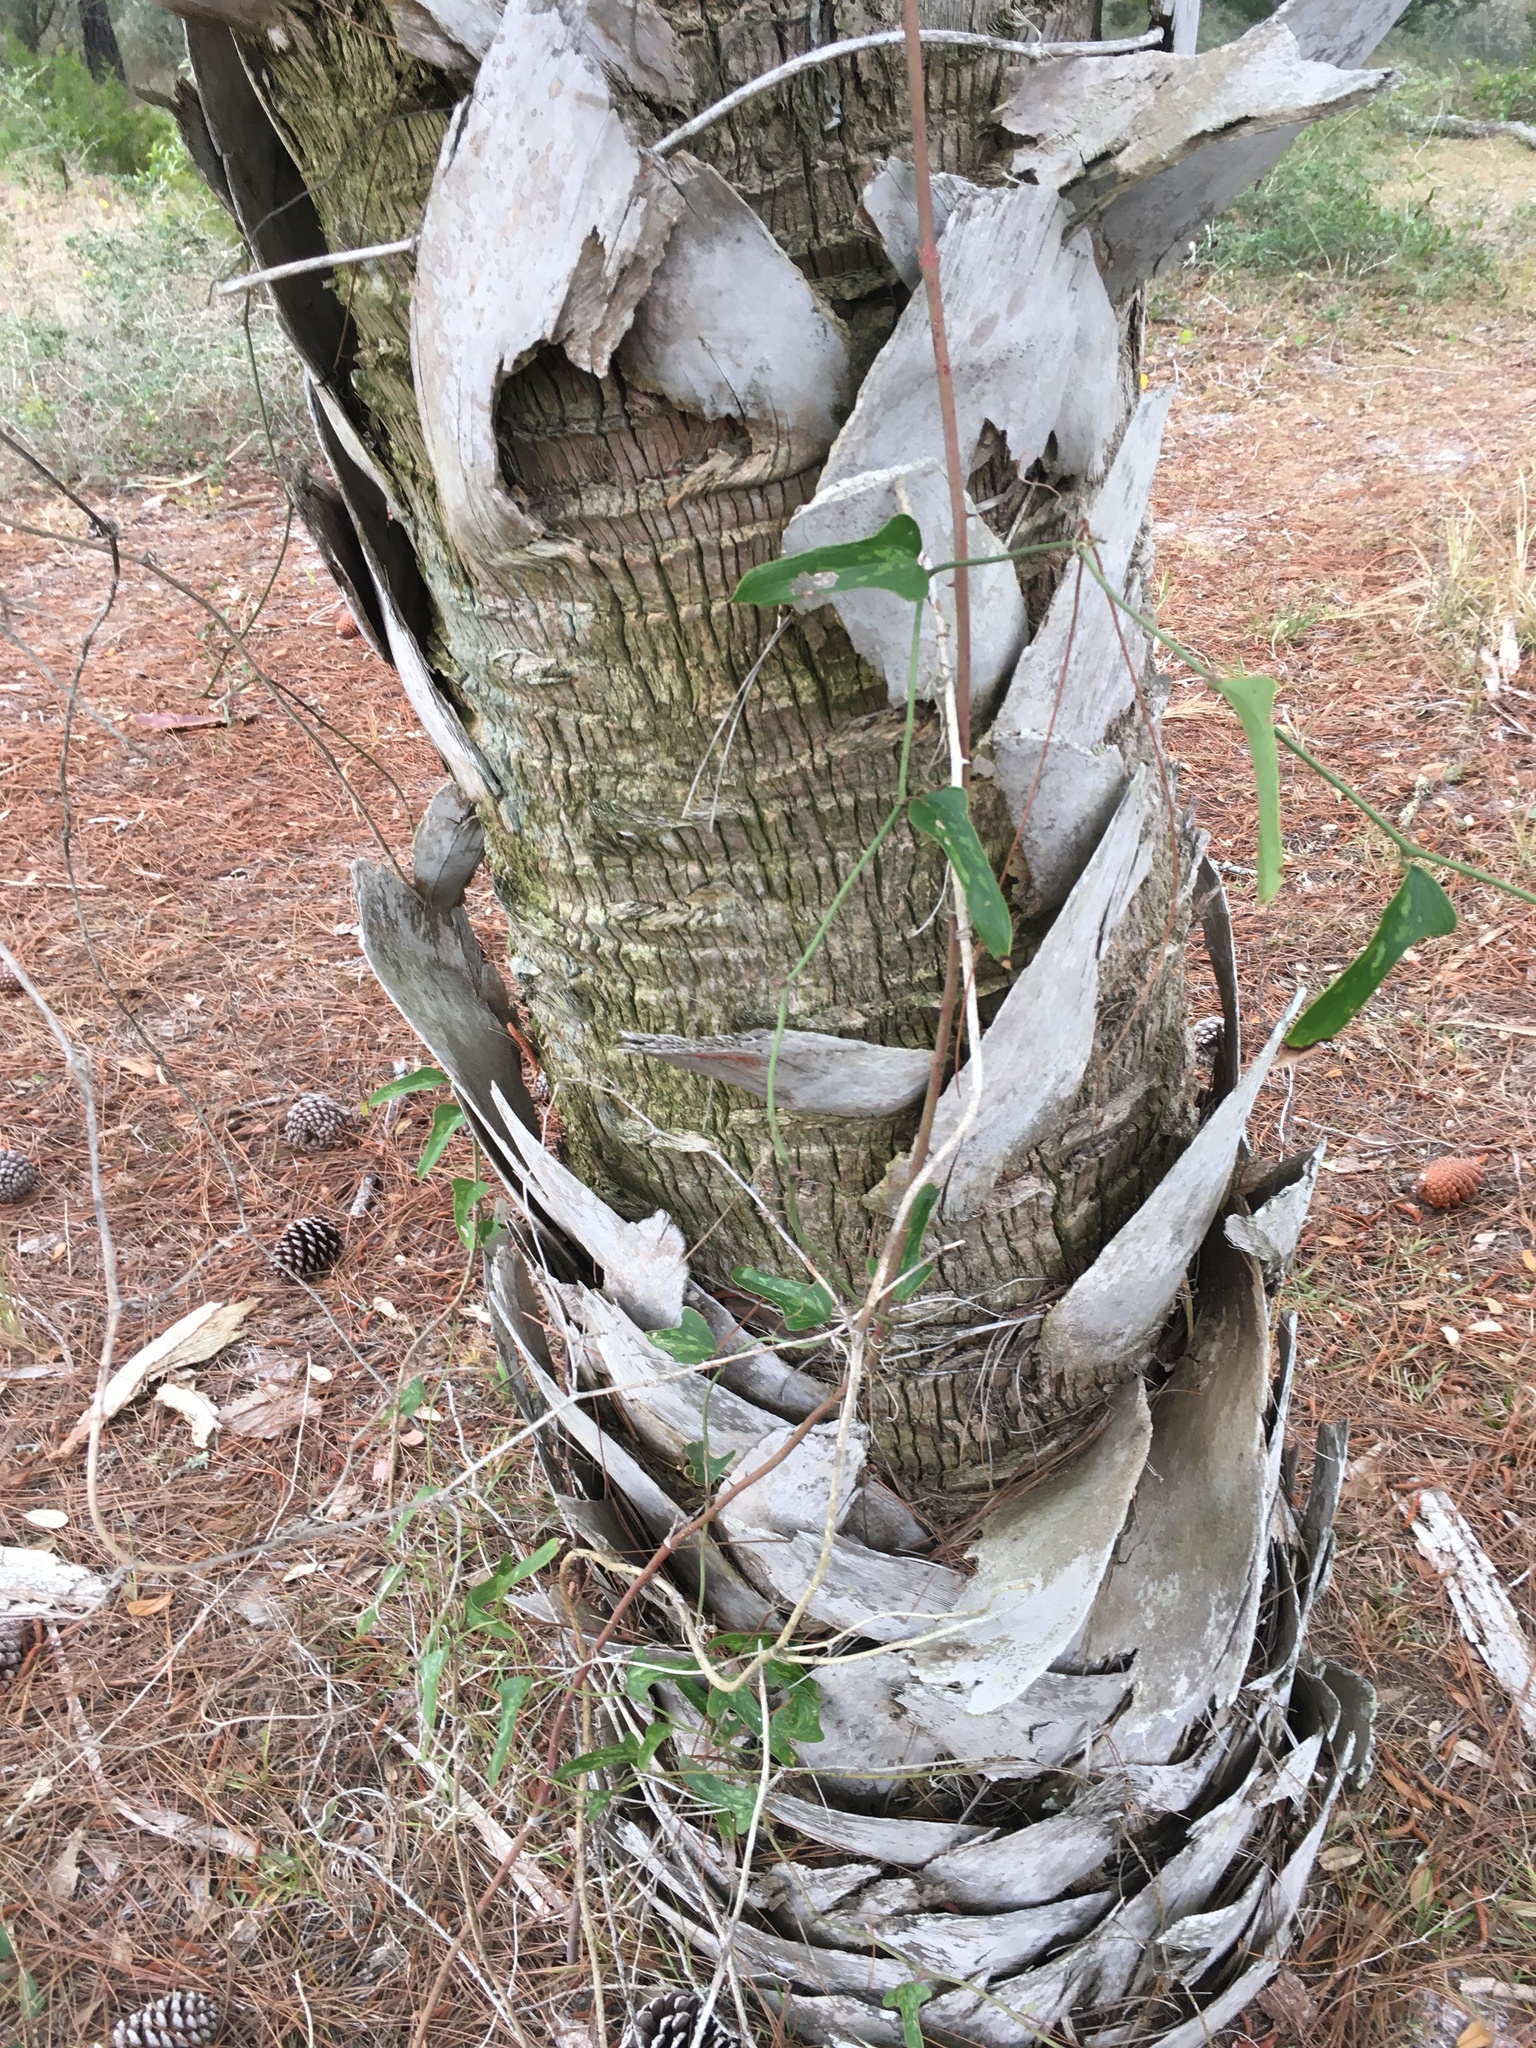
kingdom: Plantae
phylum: Tracheophyta
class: Liliopsida
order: Liliales
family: Smilacaceae
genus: Smilax
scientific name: Smilax auriculata
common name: Wild bamboo
